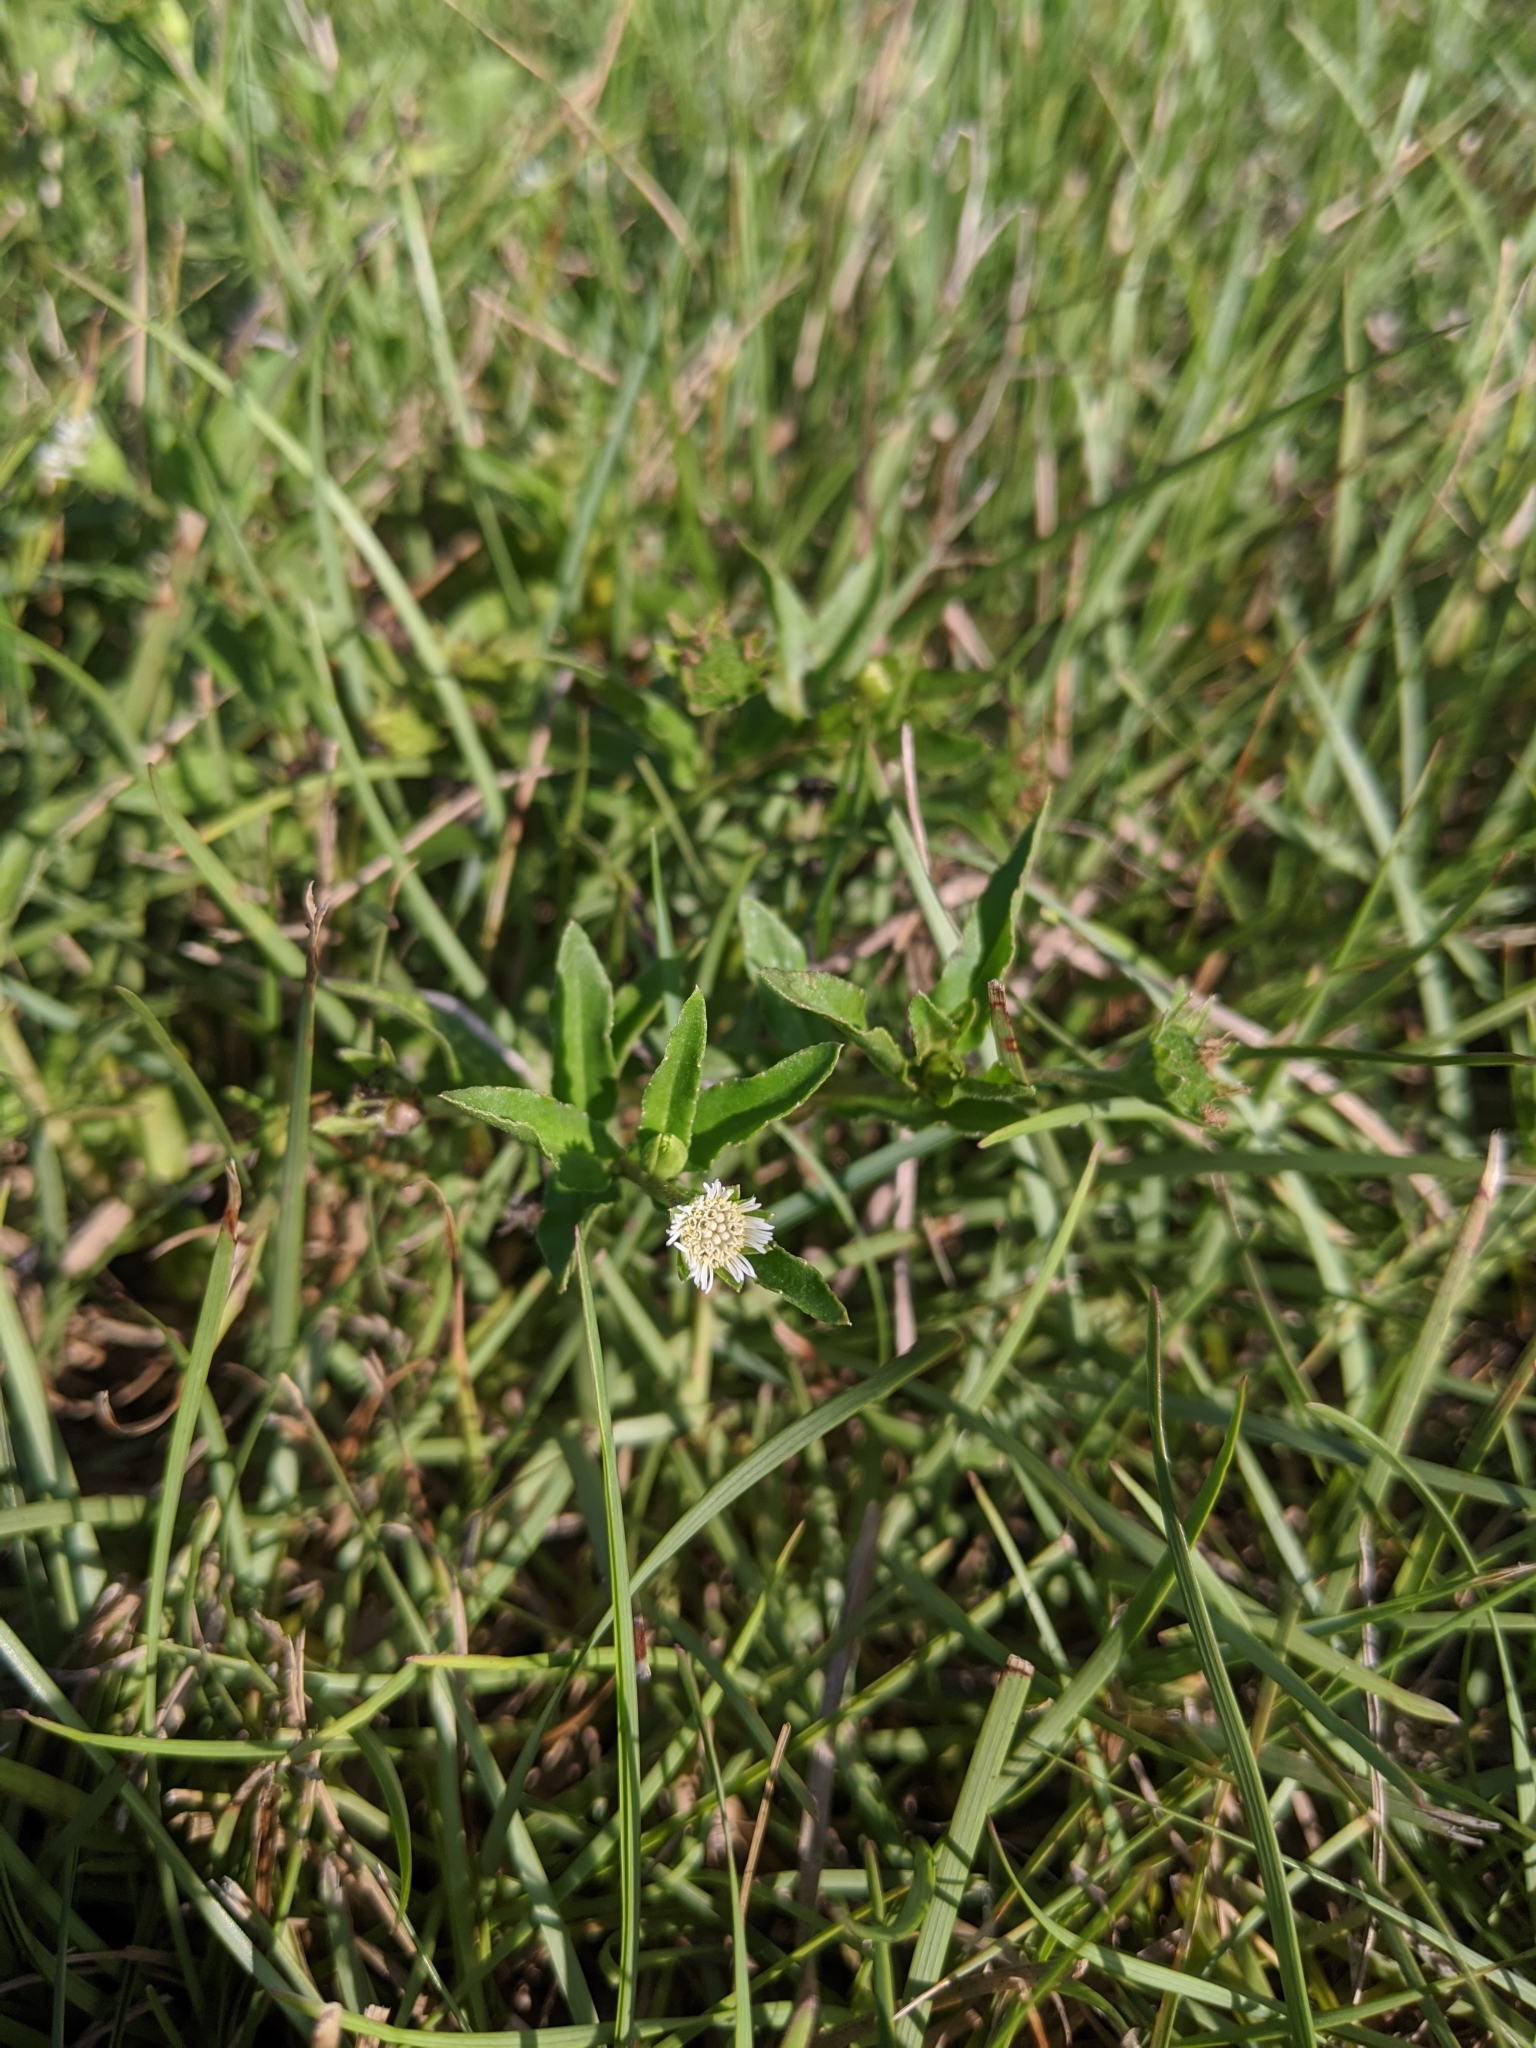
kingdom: Plantae
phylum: Tracheophyta
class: Magnoliopsida
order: Asterales
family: Asteraceae
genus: Eclipta
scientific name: Eclipta prostrata
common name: False daisy
